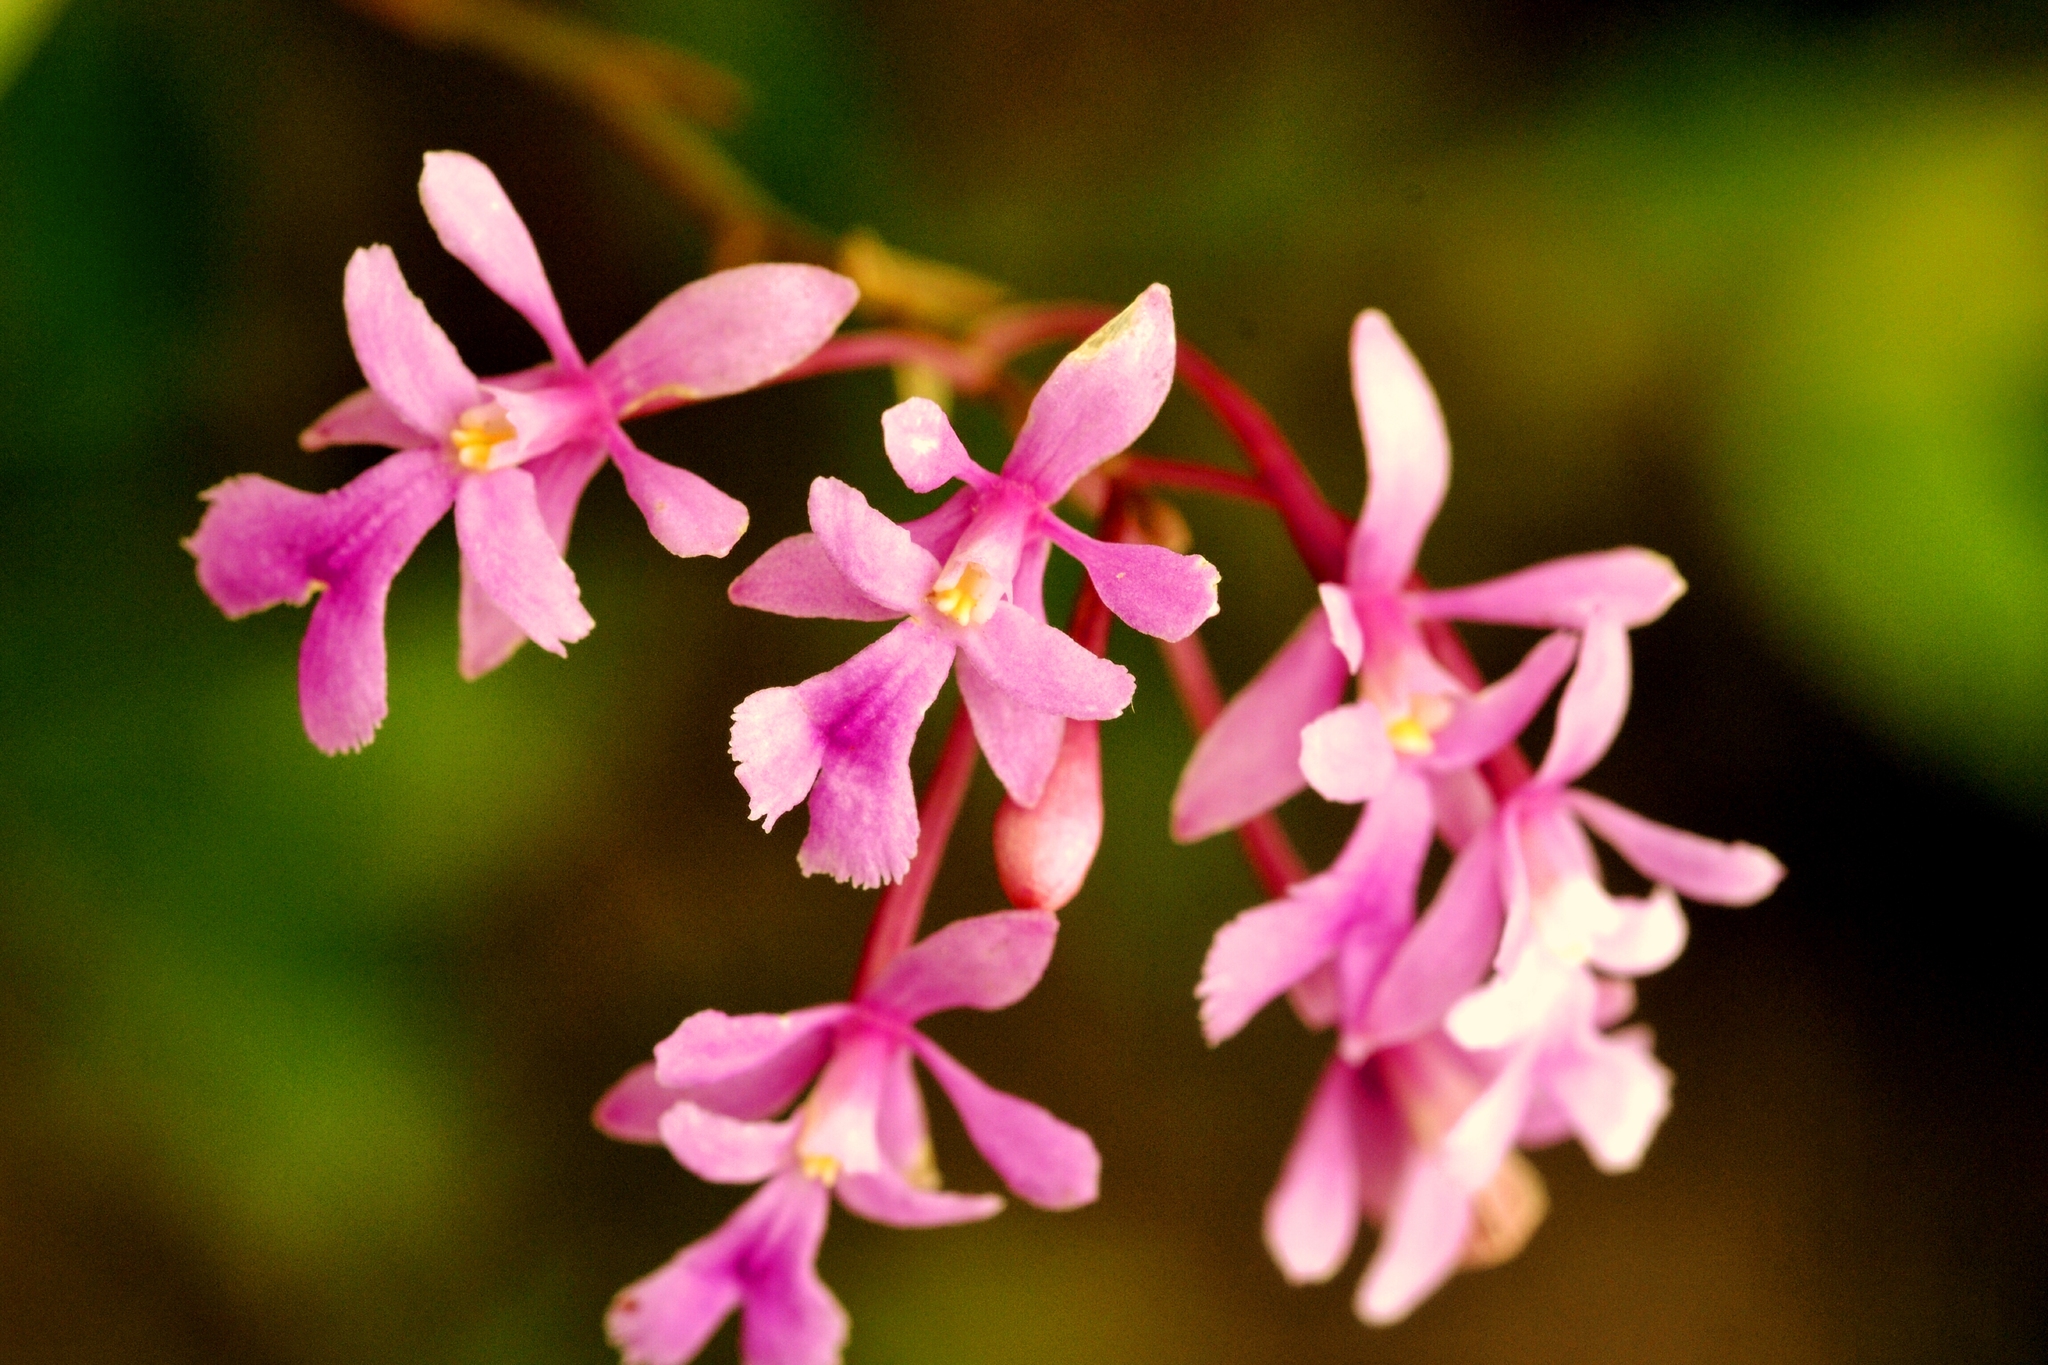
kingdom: Plantae
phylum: Tracheophyta
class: Liliopsida
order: Asparagales
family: Orchidaceae
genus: Epidendrum
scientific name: Epidendrum macdougallii
